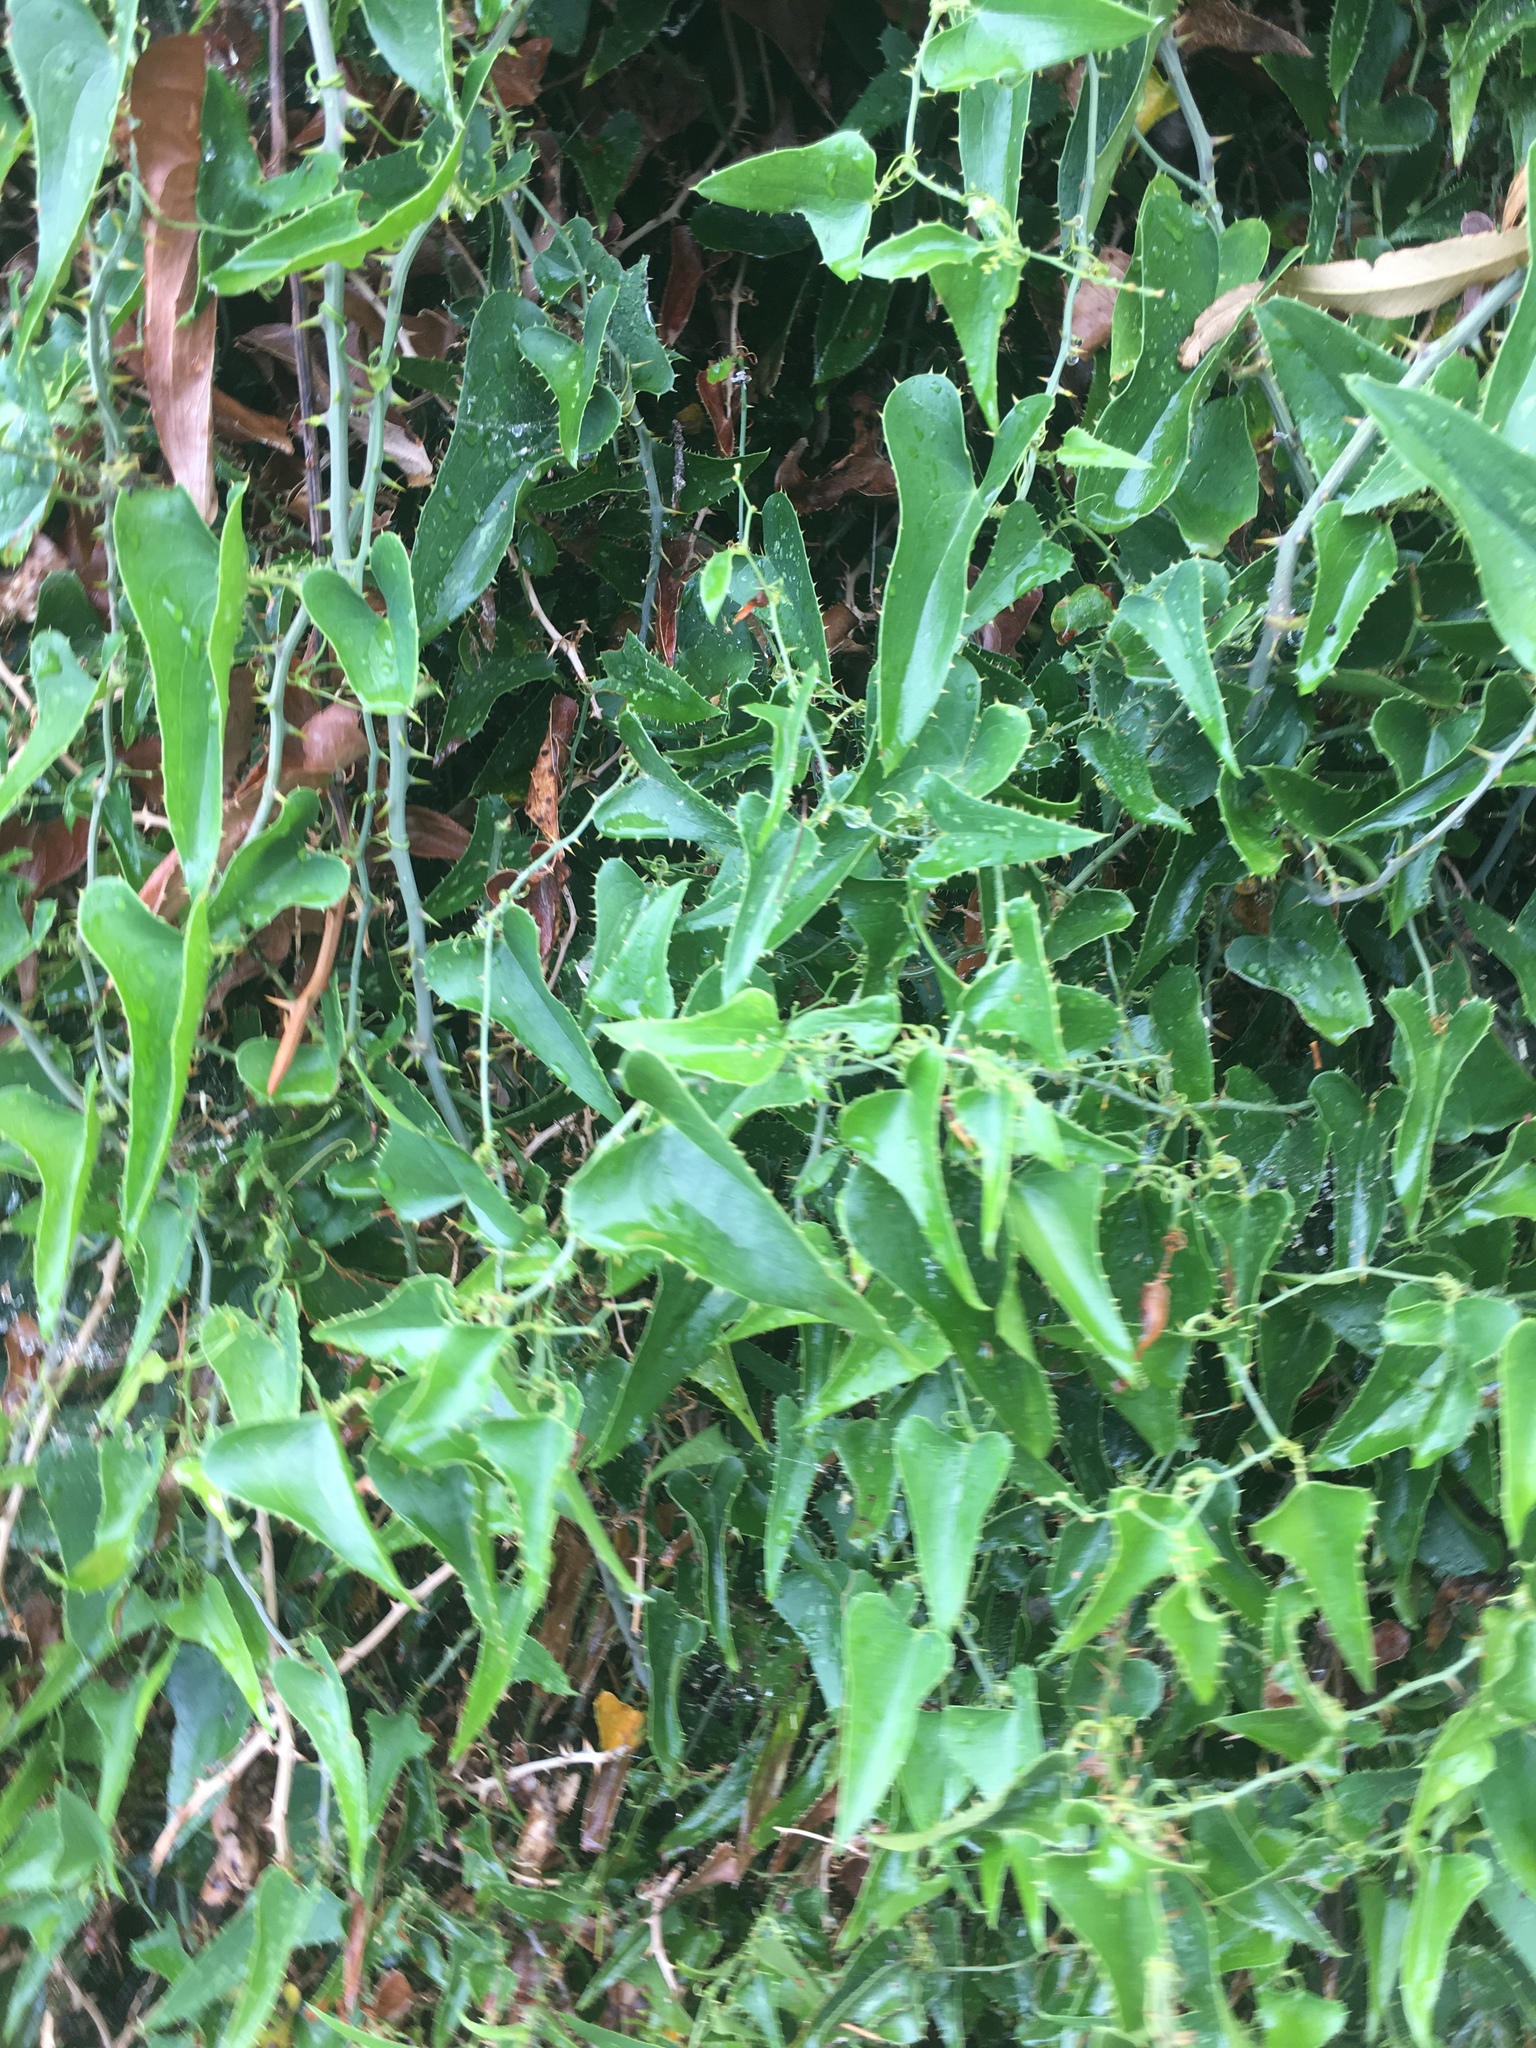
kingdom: Plantae
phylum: Tracheophyta
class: Liliopsida
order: Liliales
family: Smilacaceae
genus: Smilax
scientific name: Smilax aspera
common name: Common smilax
